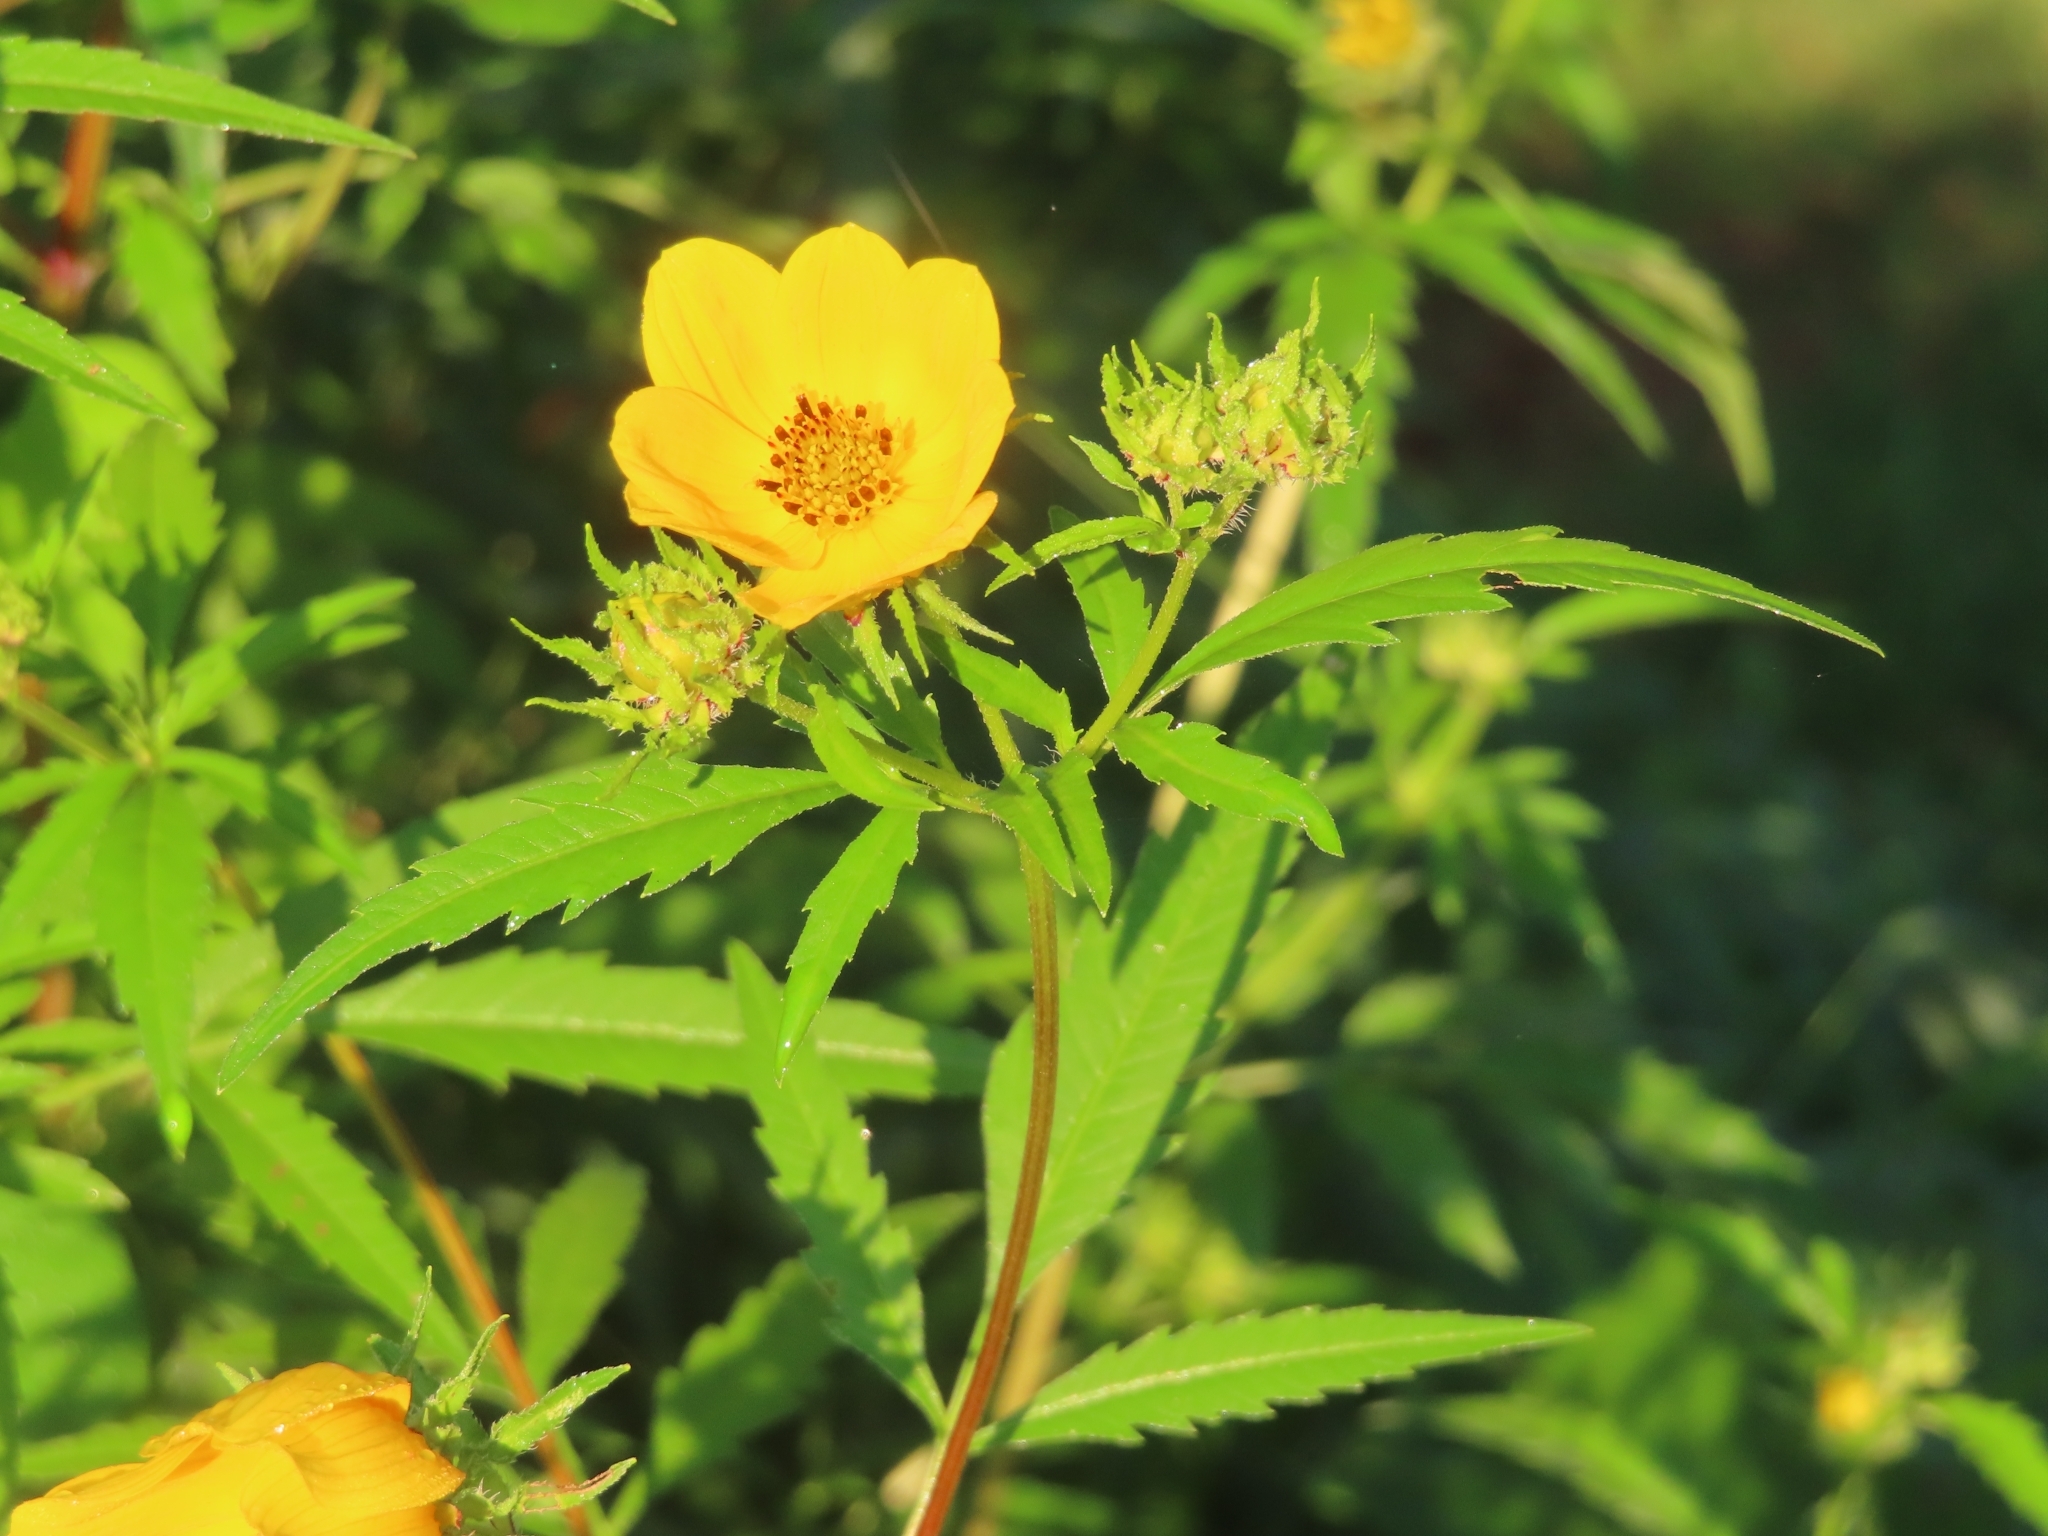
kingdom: Plantae
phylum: Tracheophyta
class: Magnoliopsida
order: Asterales
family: Asteraceae
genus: Bidens
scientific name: Bidens polylepis
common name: Awnless beggarticks
